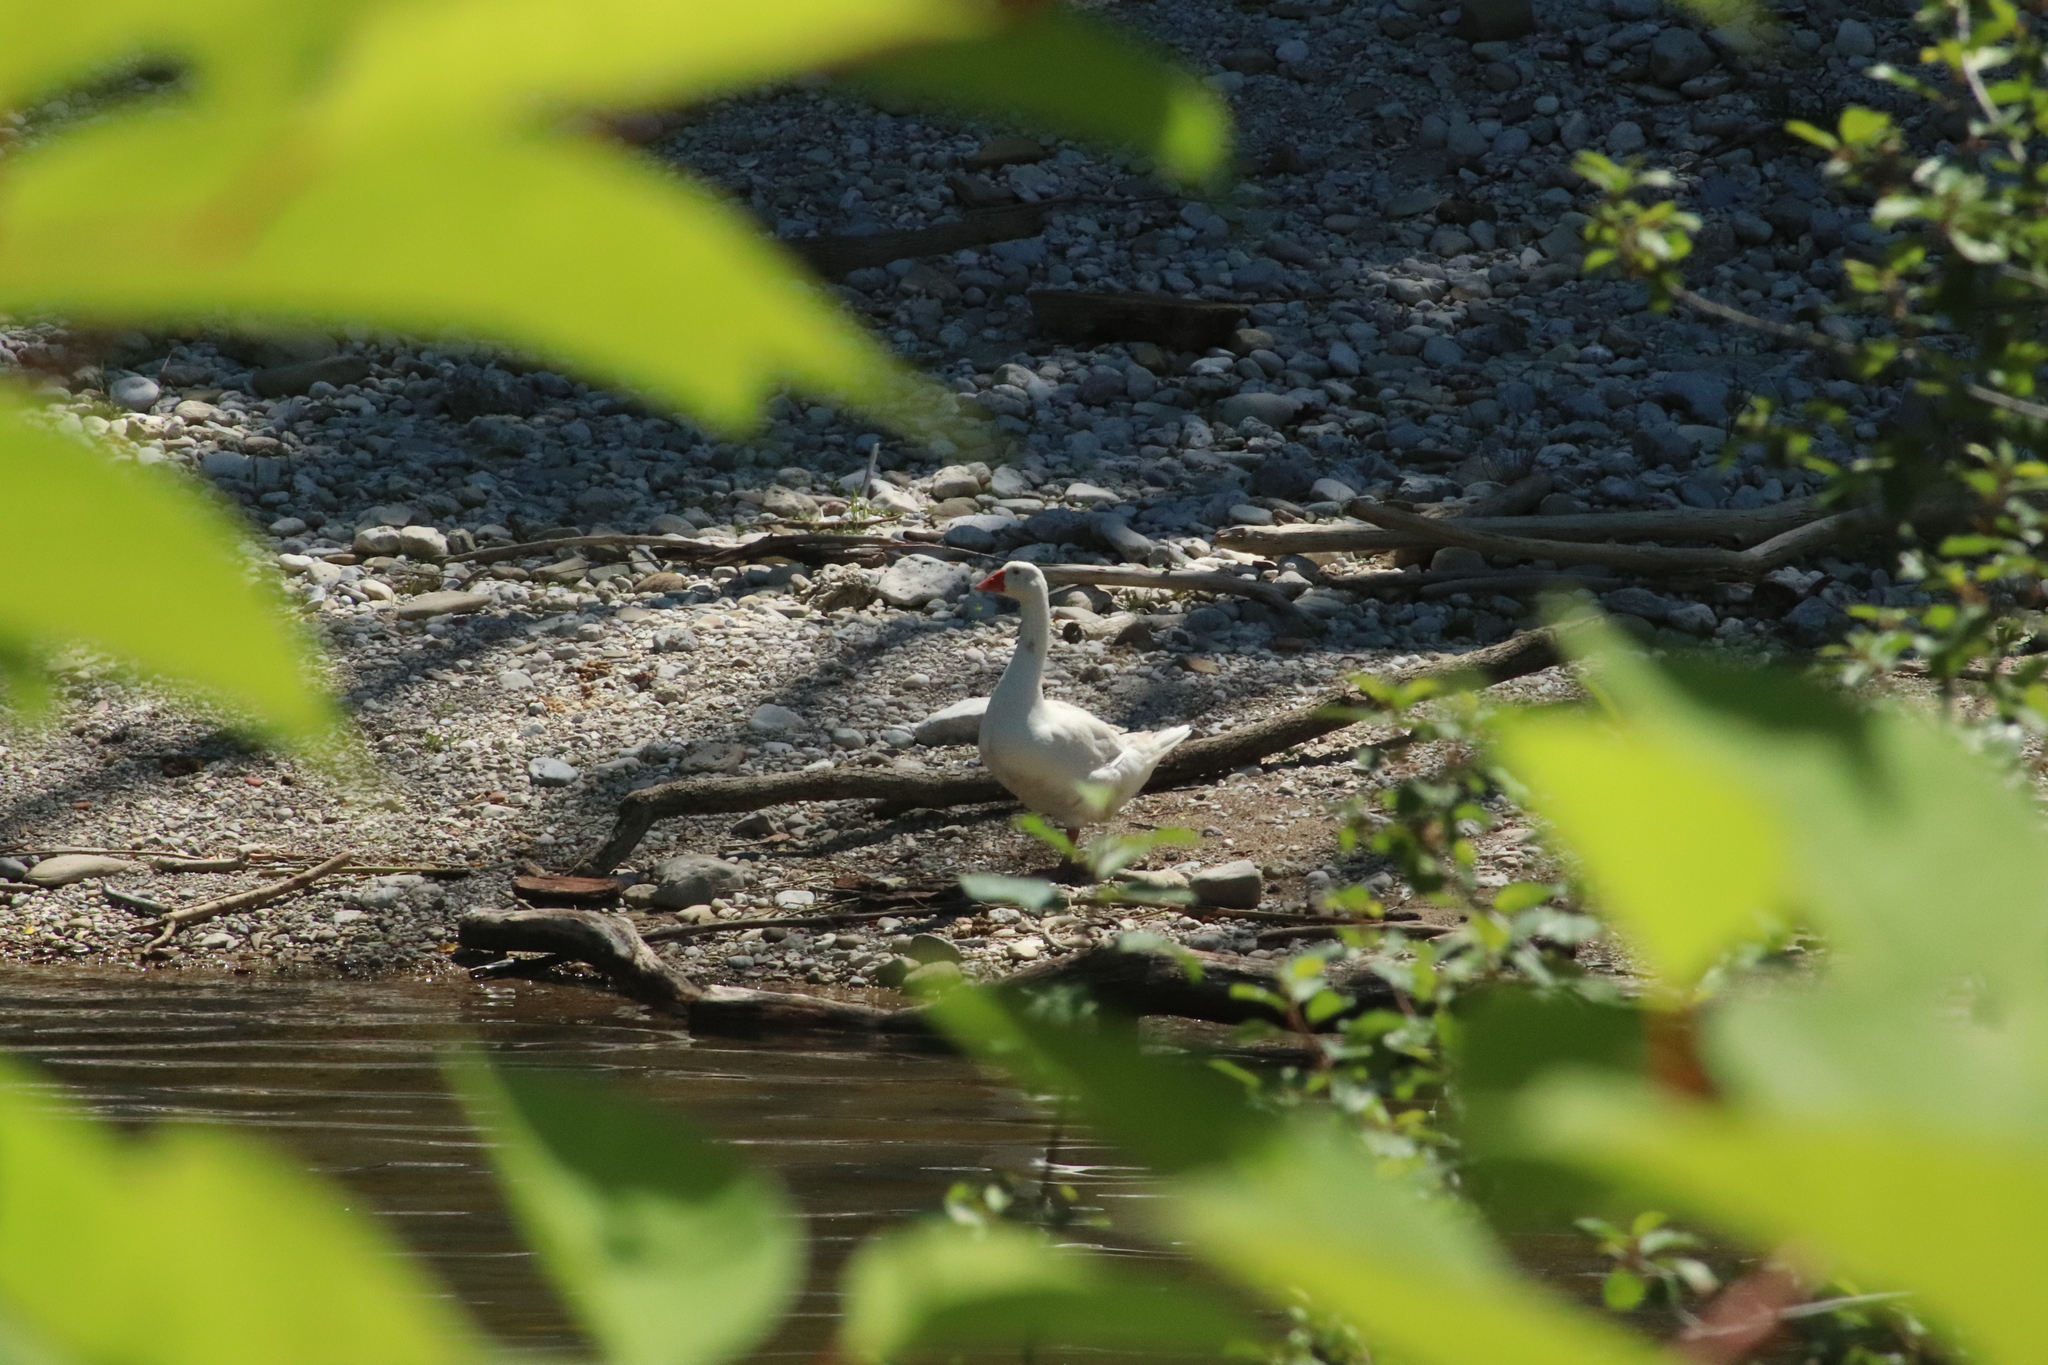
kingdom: Animalia
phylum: Chordata
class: Aves
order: Anseriformes
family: Anatidae
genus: Anser
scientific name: Anser anser
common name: Greylag goose
